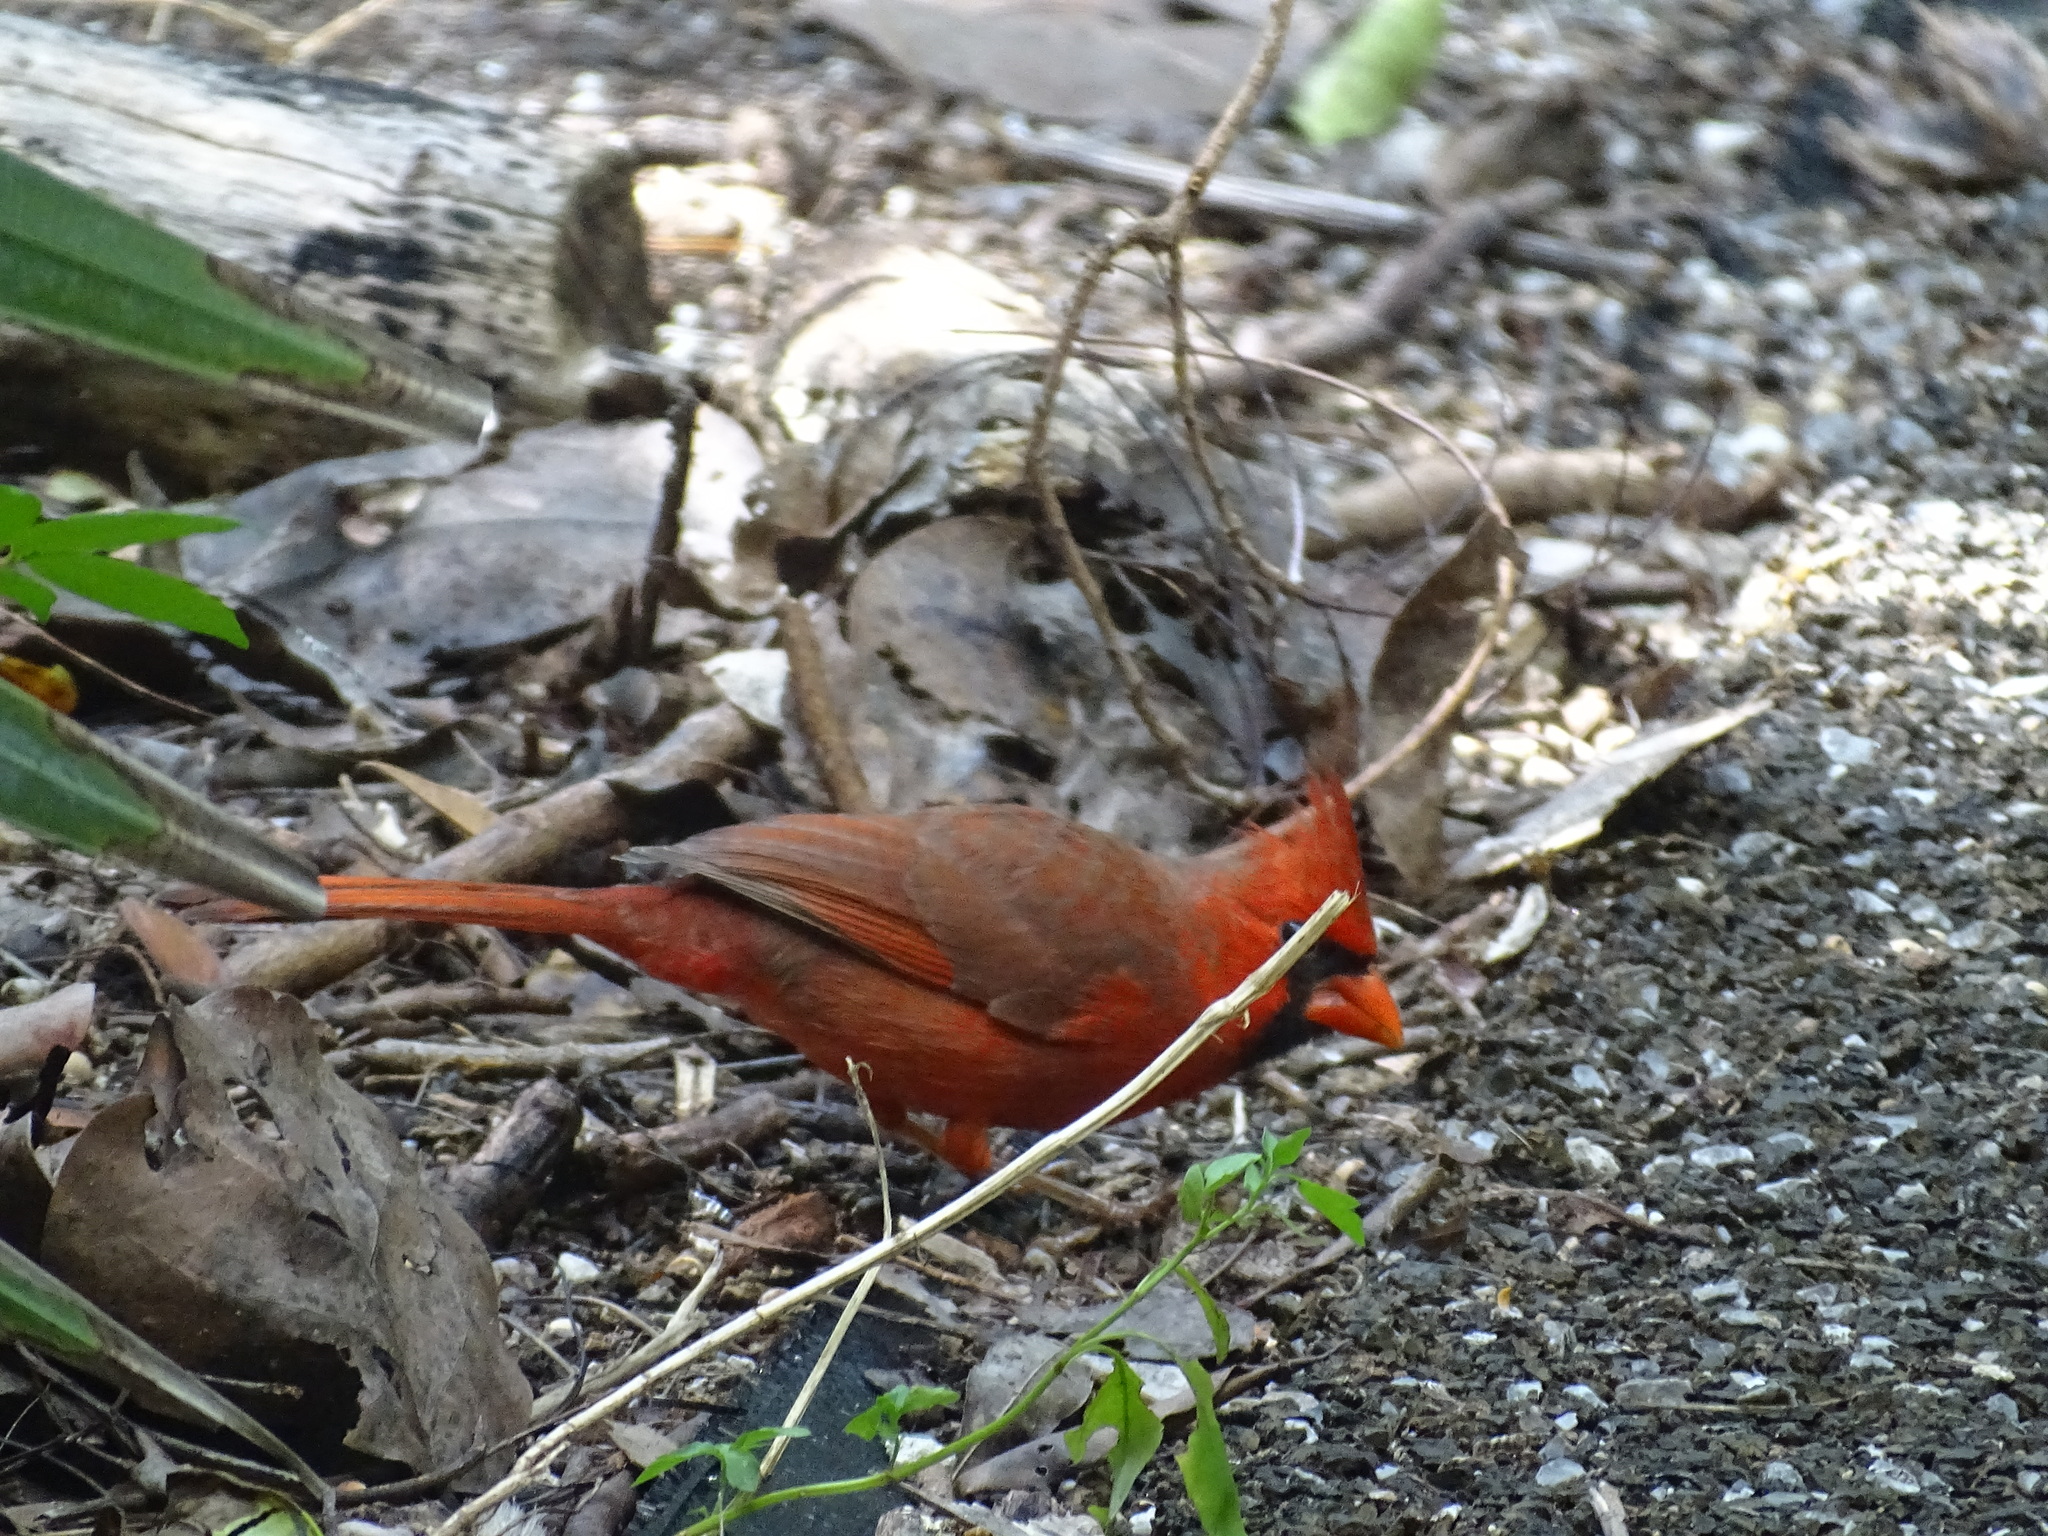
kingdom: Animalia
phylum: Chordata
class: Aves
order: Passeriformes
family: Cardinalidae
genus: Cardinalis
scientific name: Cardinalis cardinalis
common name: Northern cardinal
